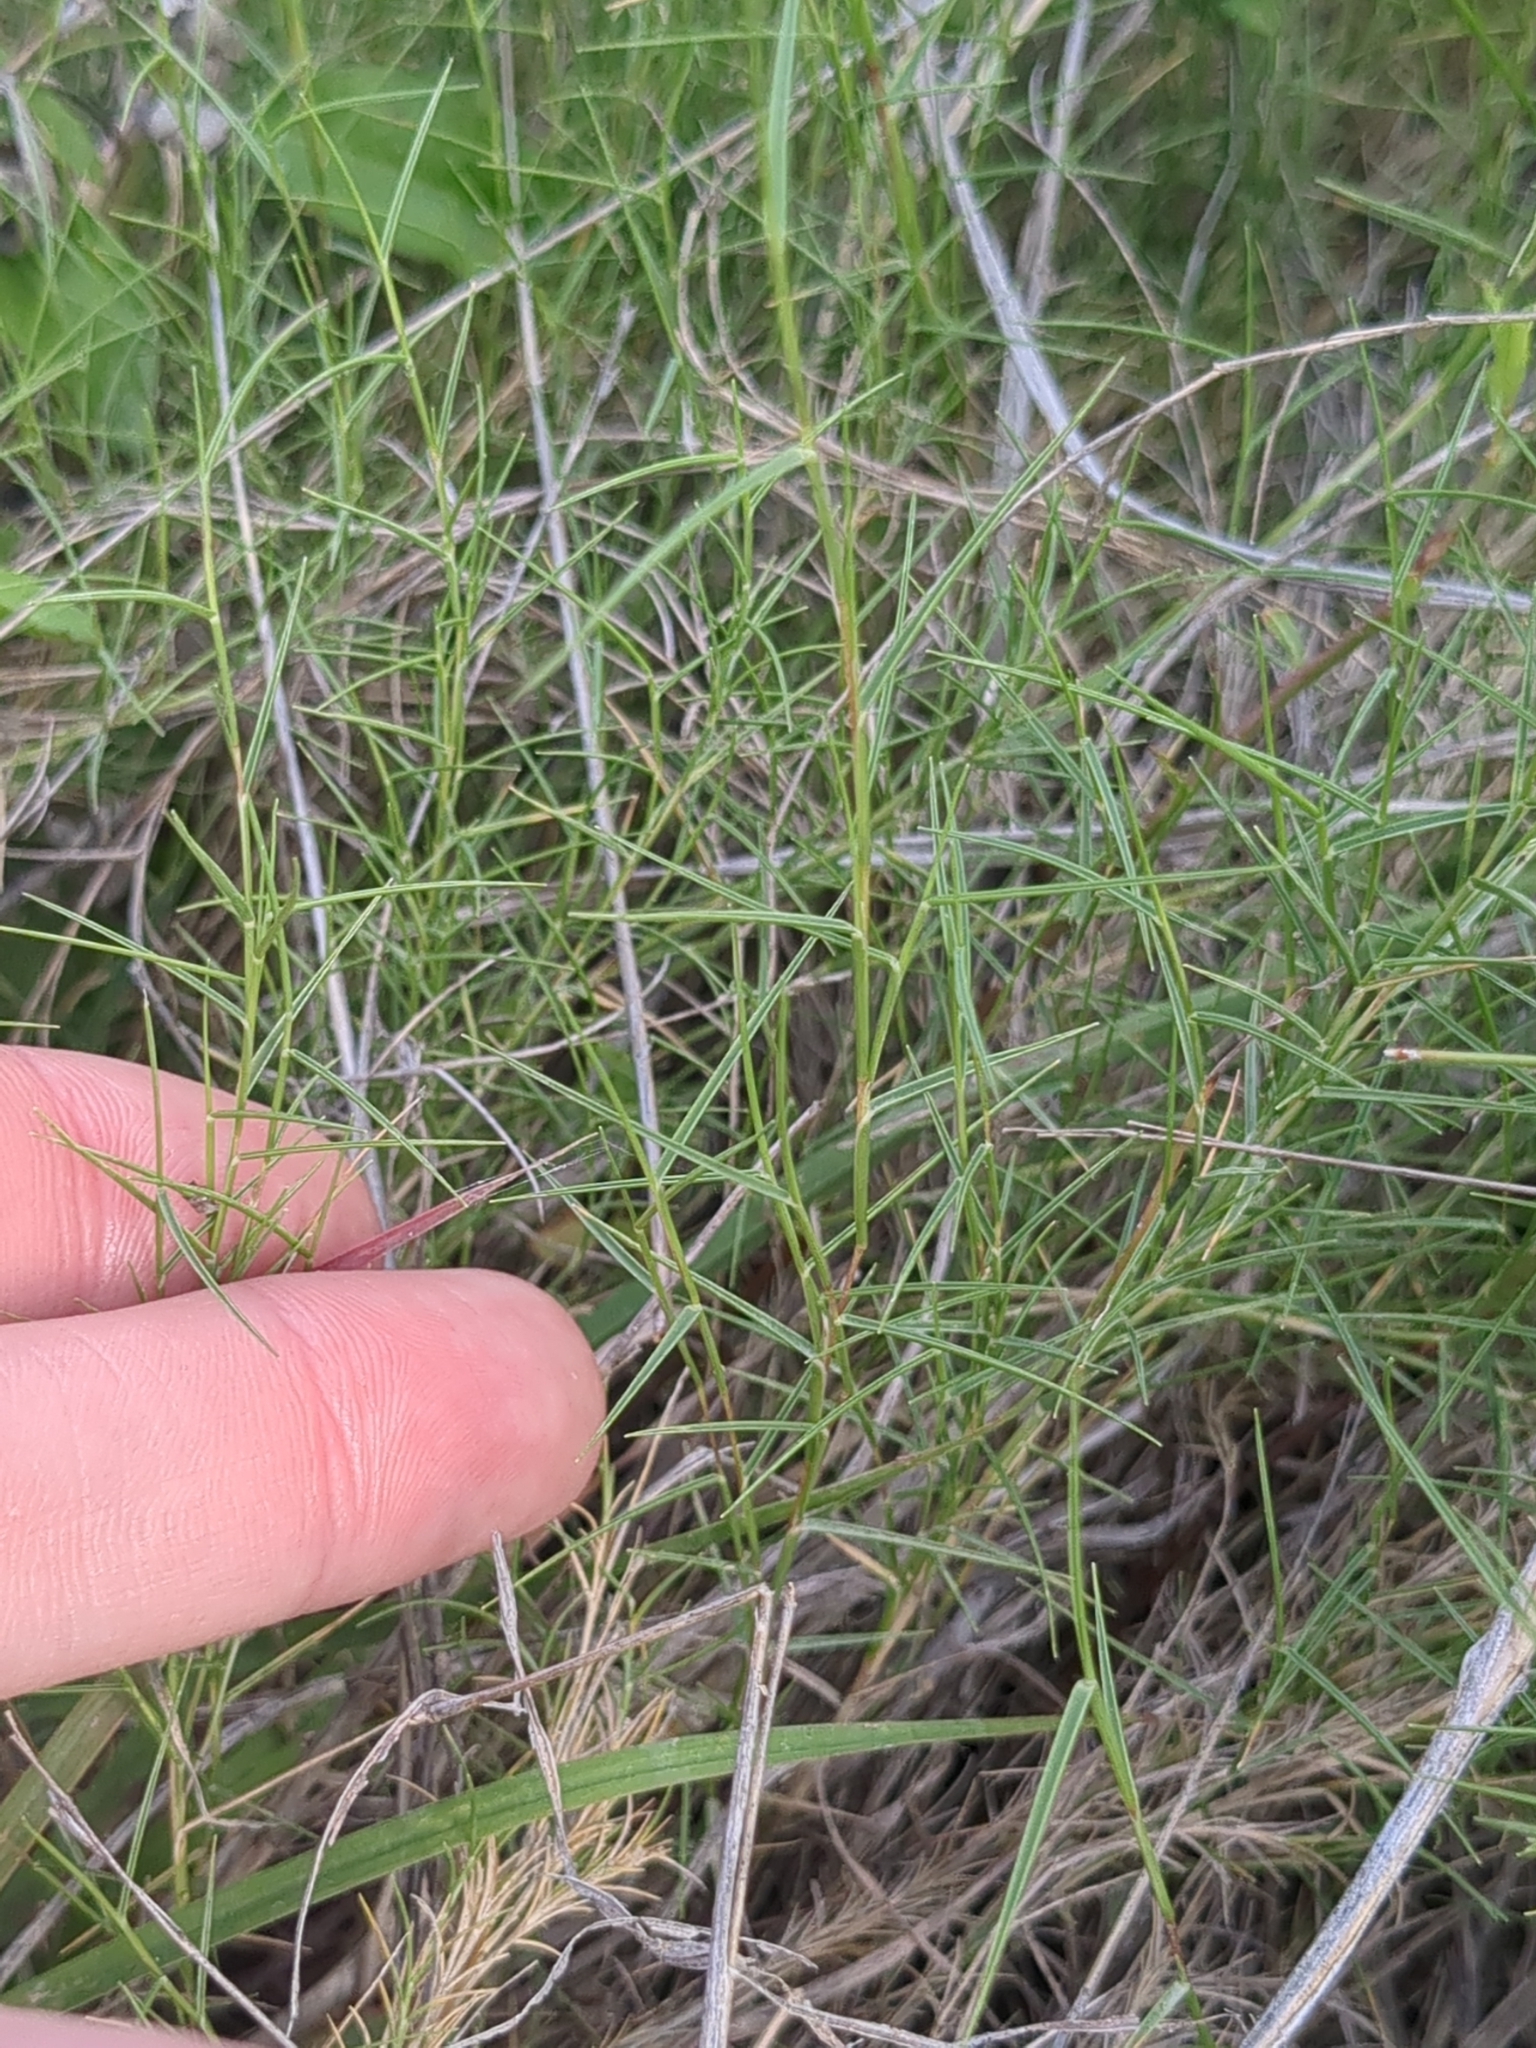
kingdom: Plantae
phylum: Tracheophyta
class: Liliopsida
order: Poales
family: Poaceae
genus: Muhlenbergia
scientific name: Muhlenbergia utilis
